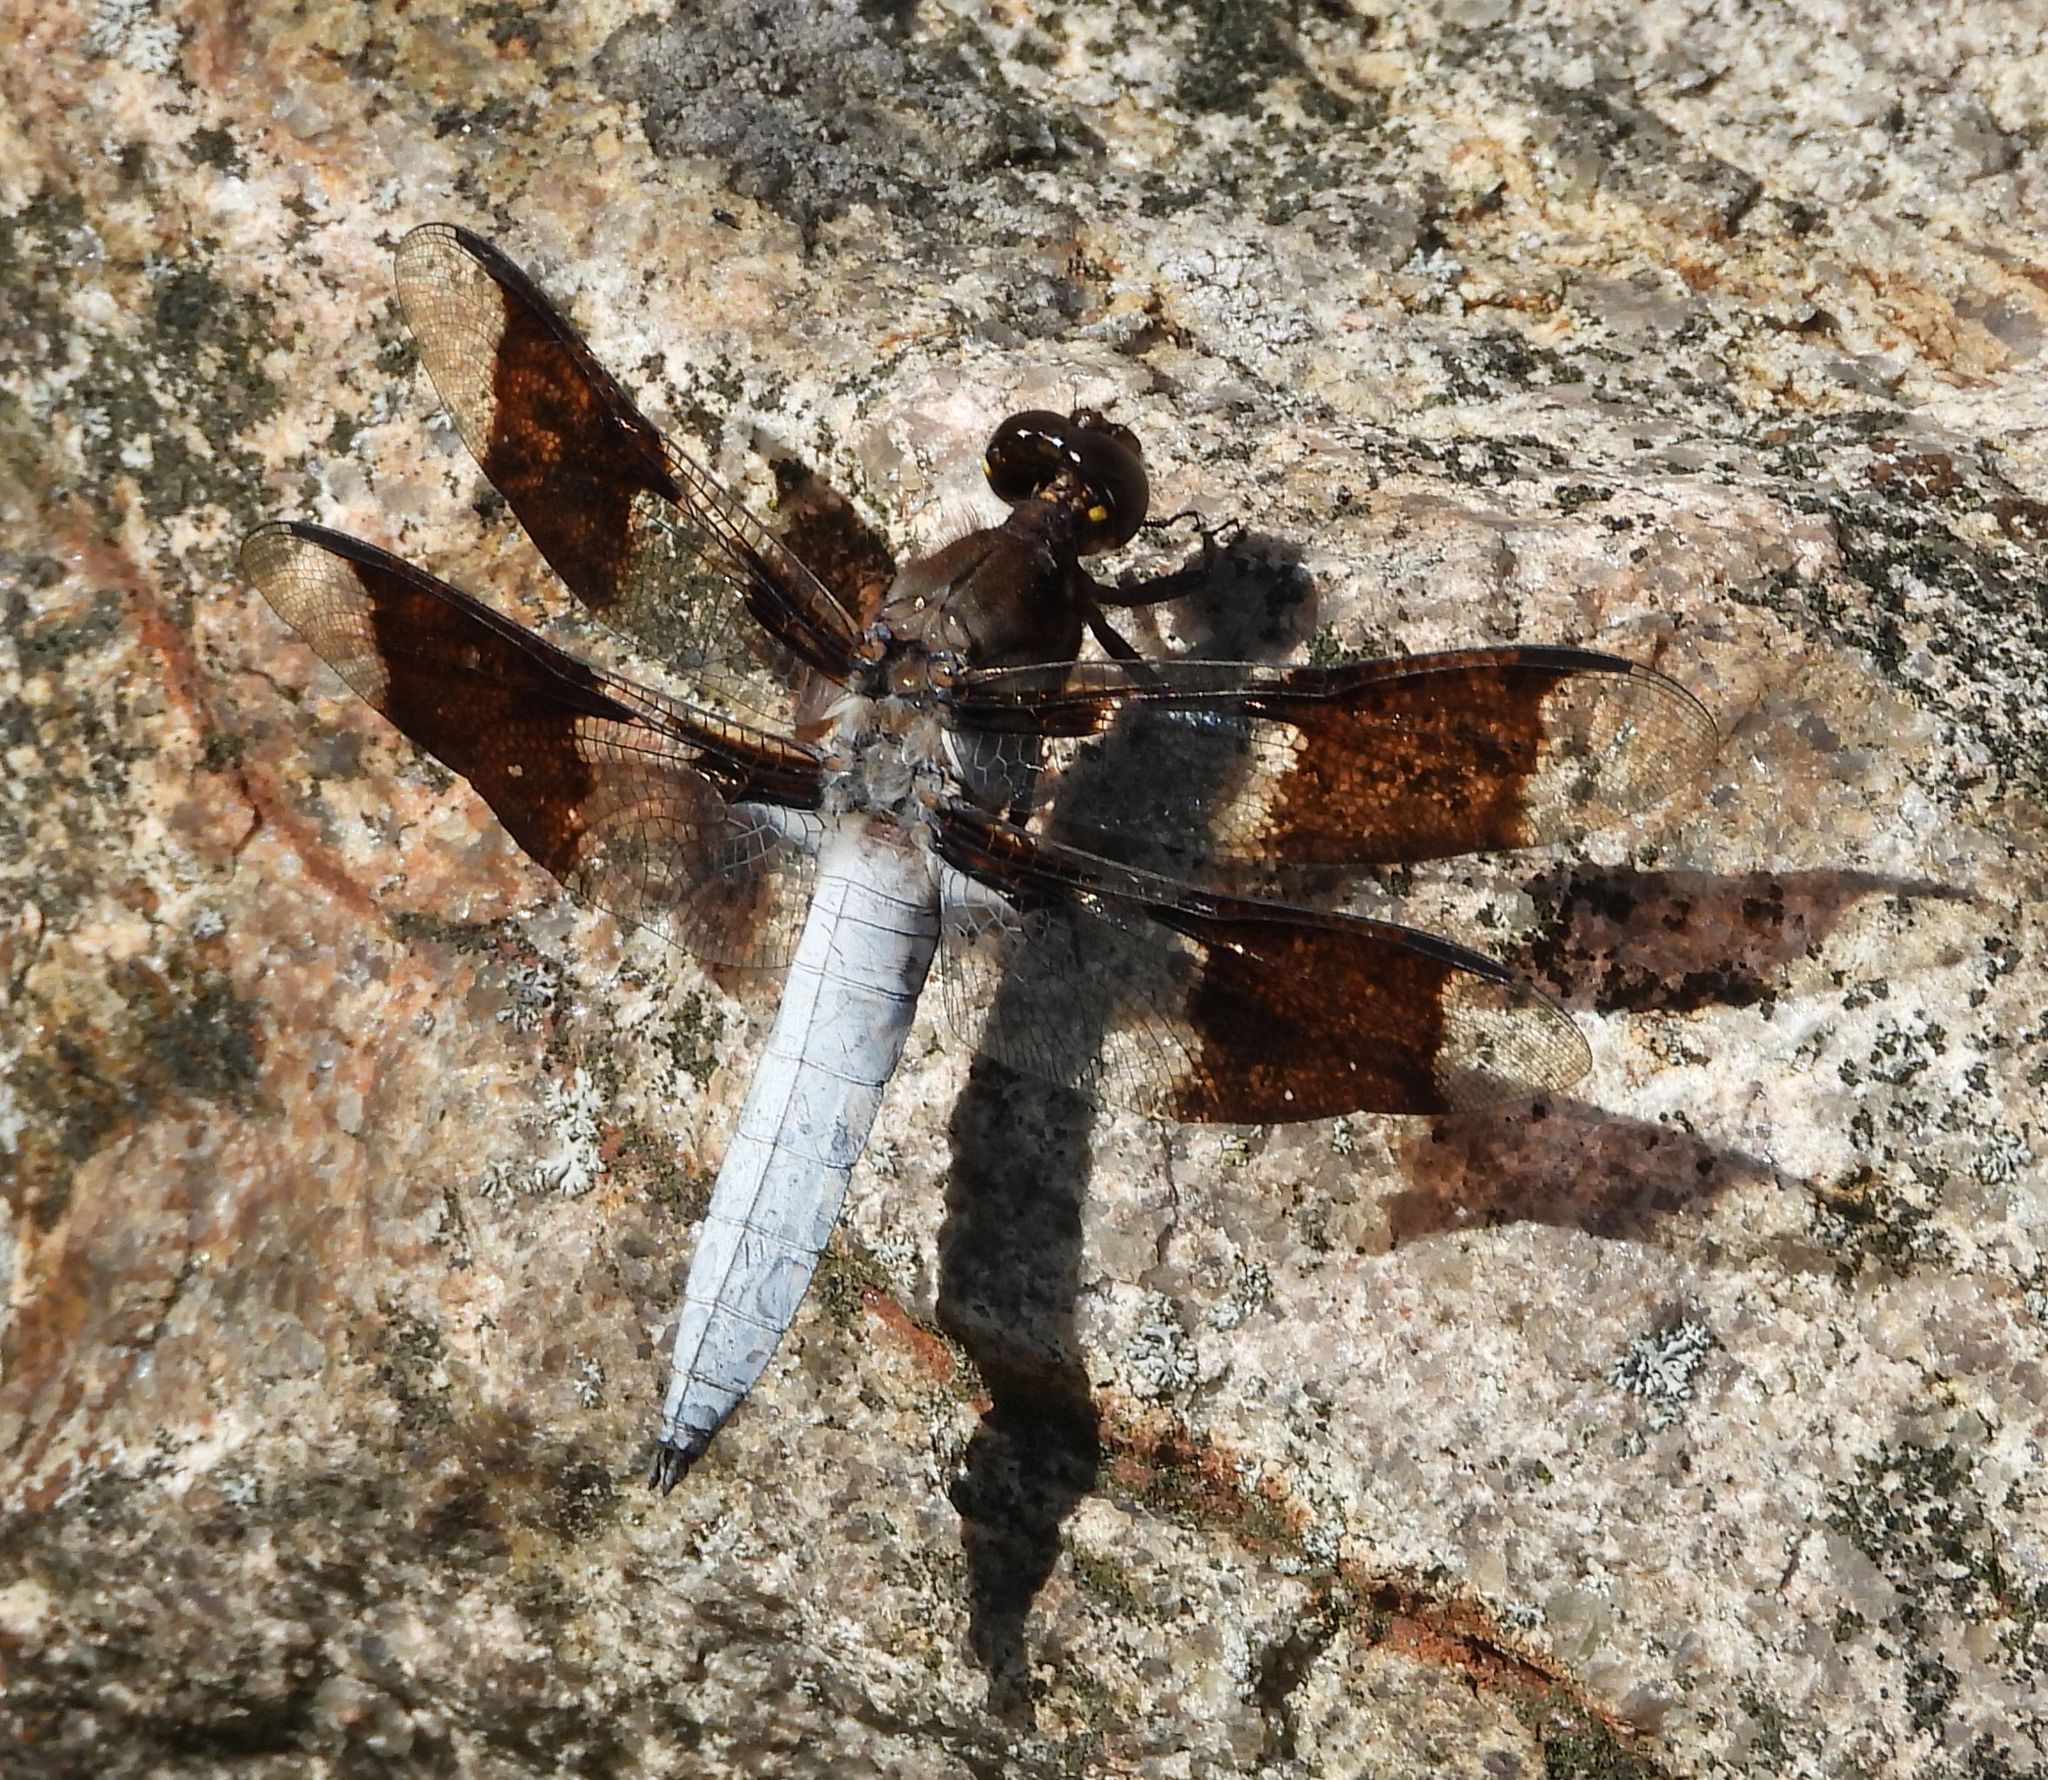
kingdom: Animalia
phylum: Arthropoda
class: Insecta
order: Odonata
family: Libellulidae
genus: Plathemis
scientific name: Plathemis lydia
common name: Common whitetail
